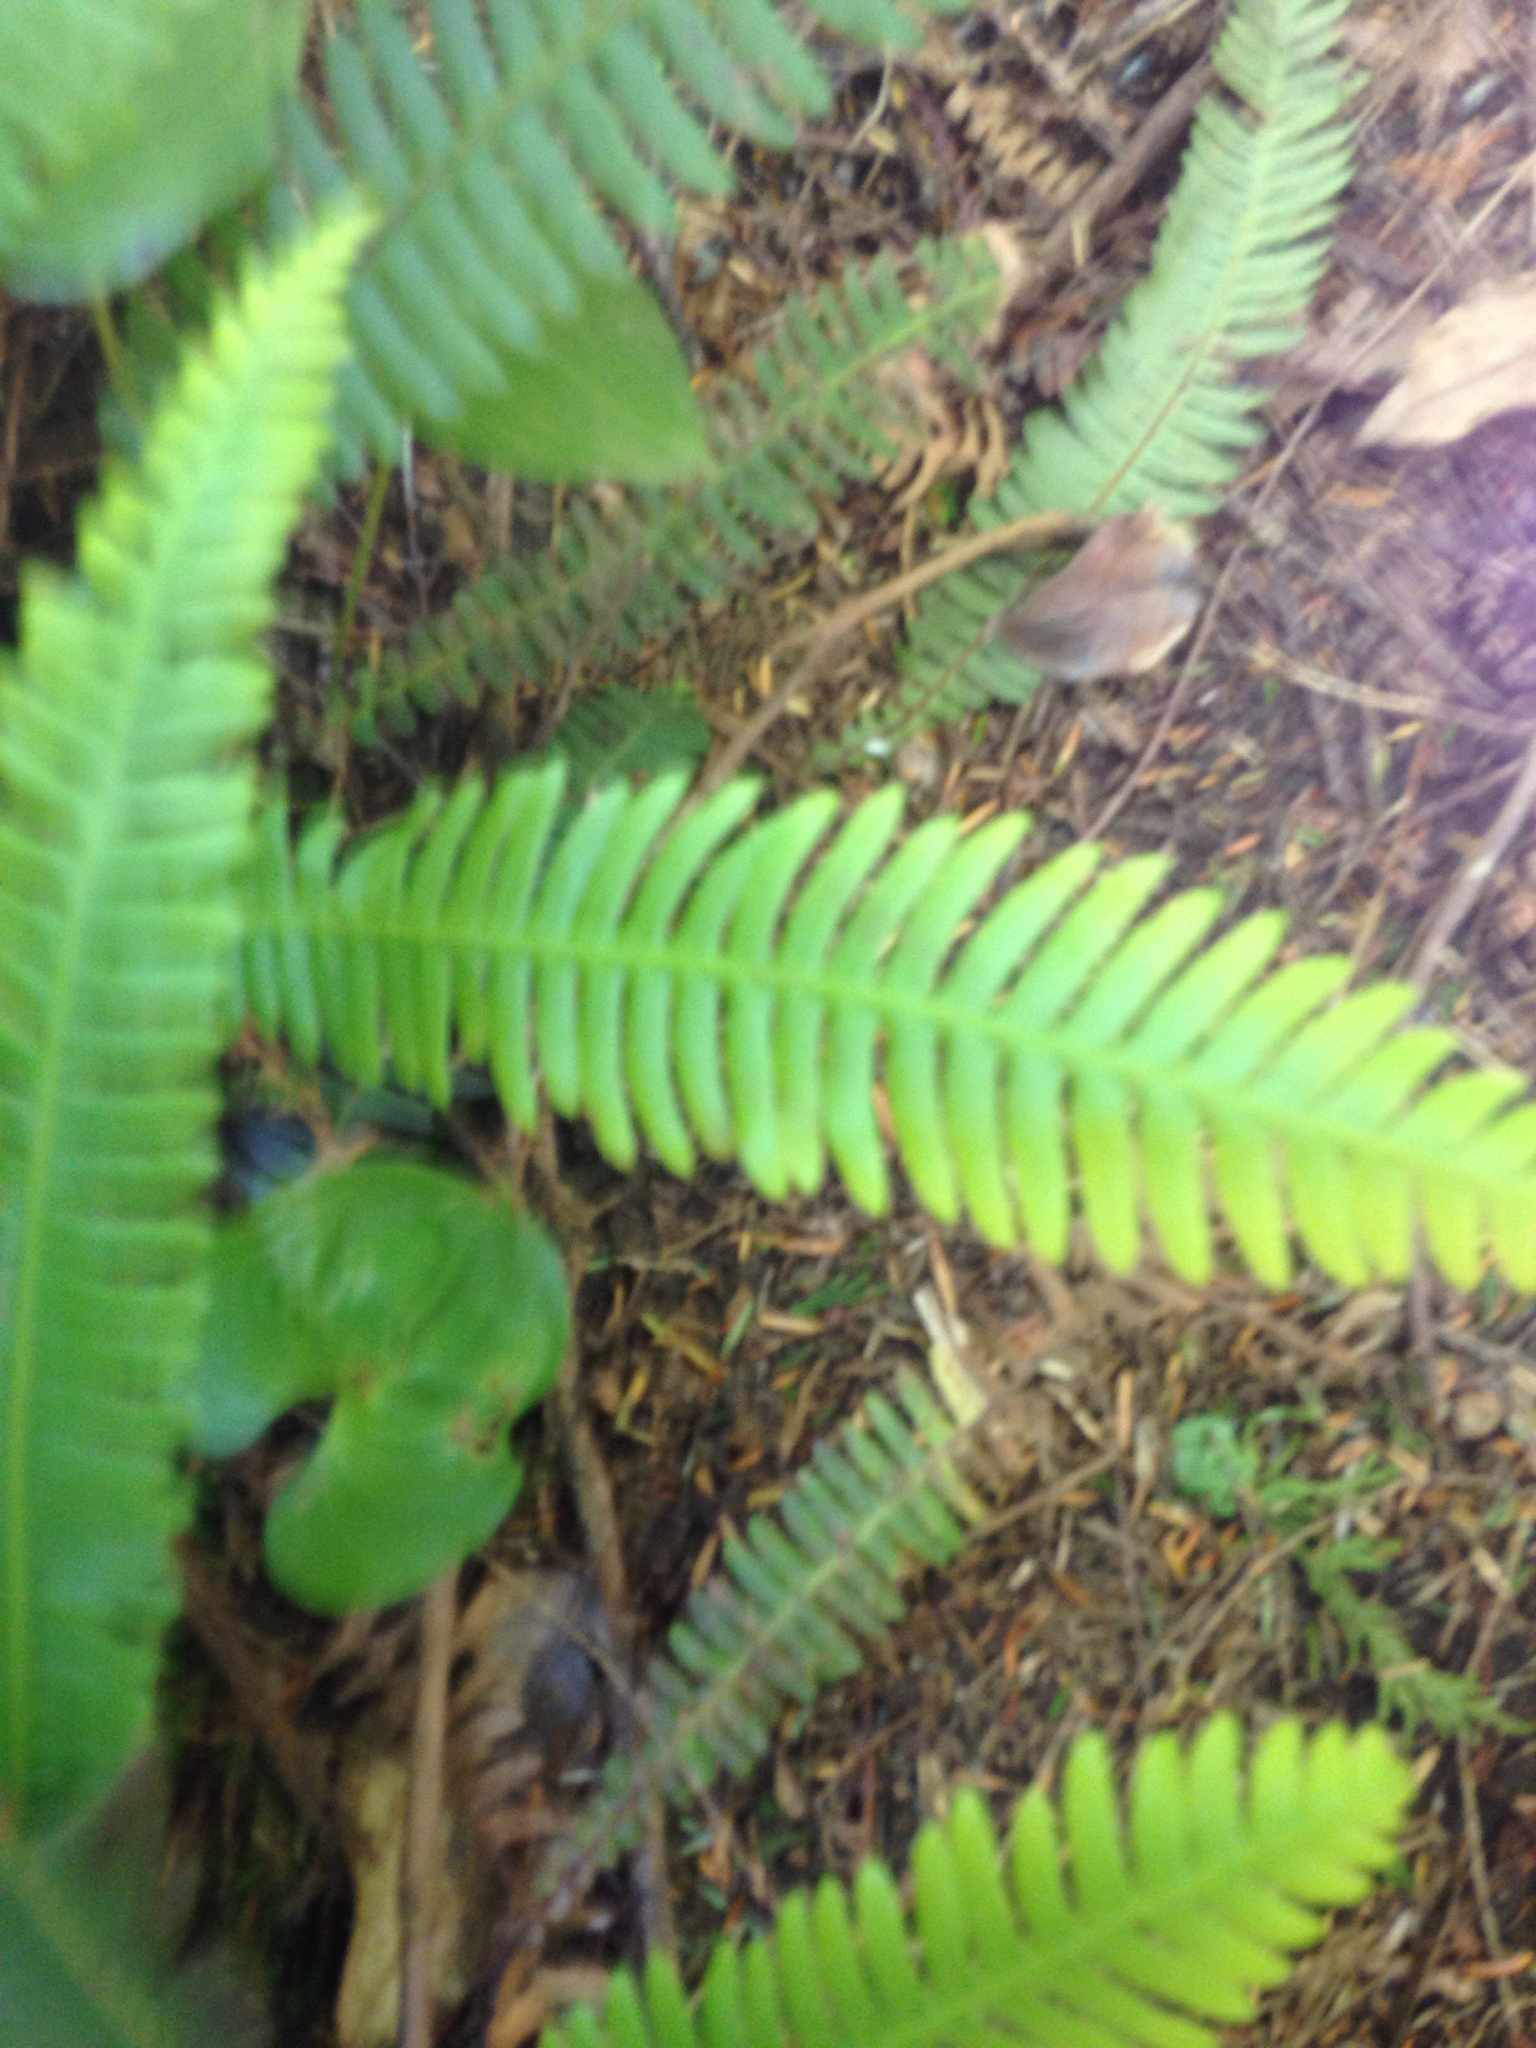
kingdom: Plantae
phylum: Tracheophyta
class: Polypodiopsida
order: Polypodiales
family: Blechnaceae
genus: Struthiopteris
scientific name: Struthiopteris spicant
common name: Deer fern
